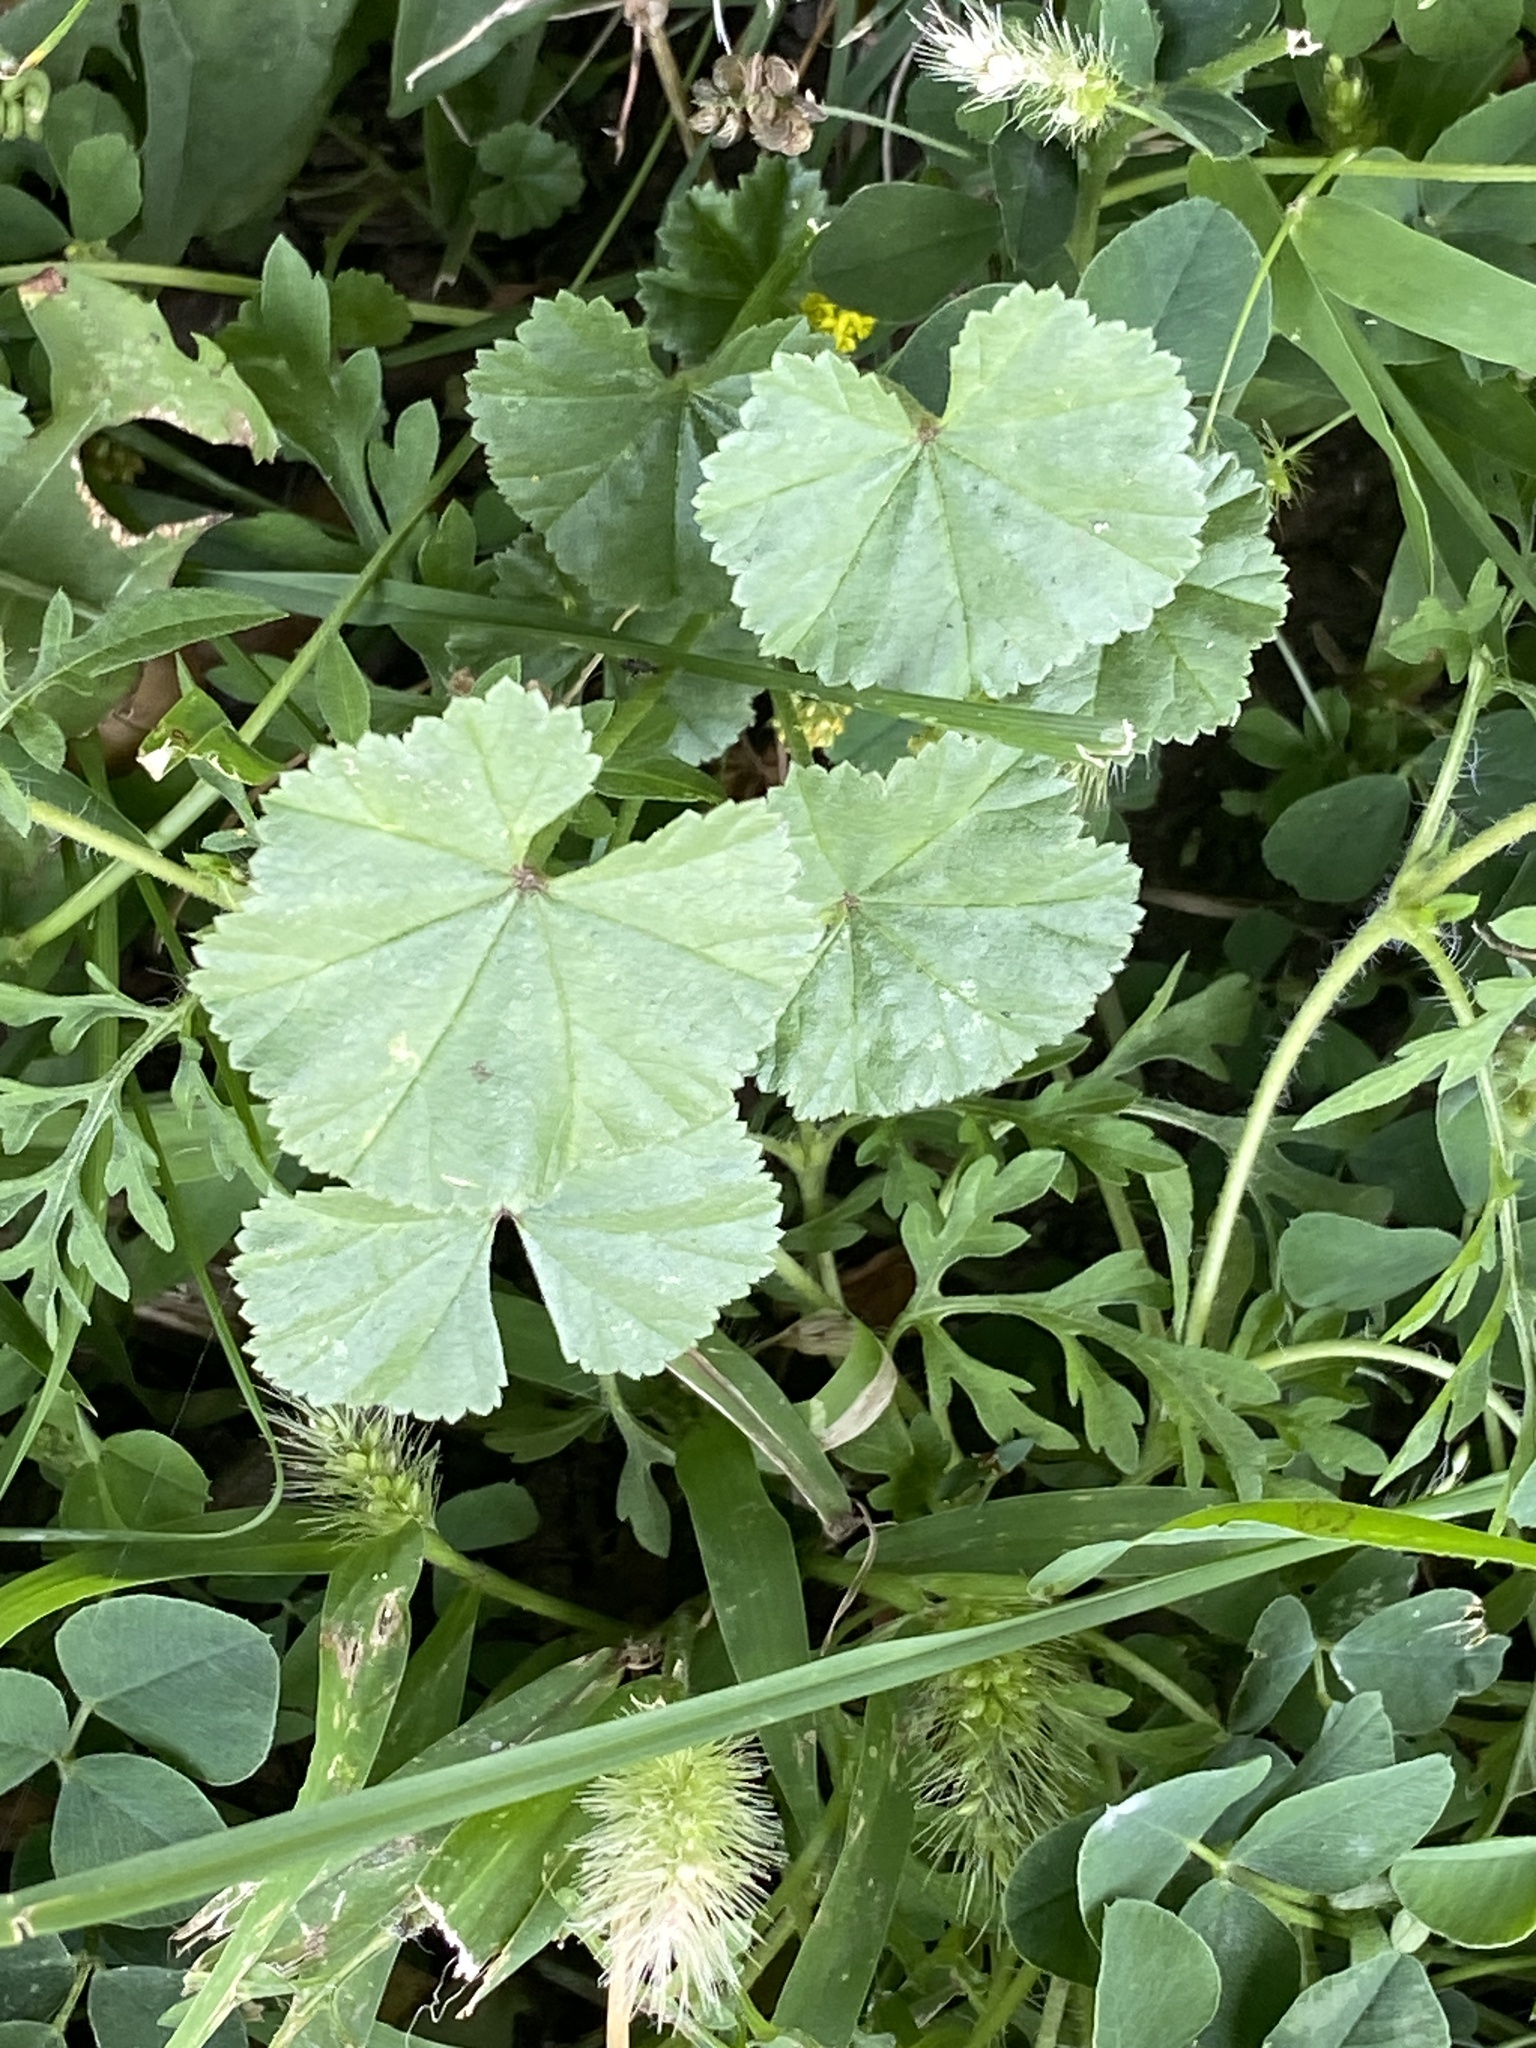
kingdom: Plantae
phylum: Tracheophyta
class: Magnoliopsida
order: Malvales
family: Malvaceae
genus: Malva
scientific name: Malva neglecta
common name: Common mallow
